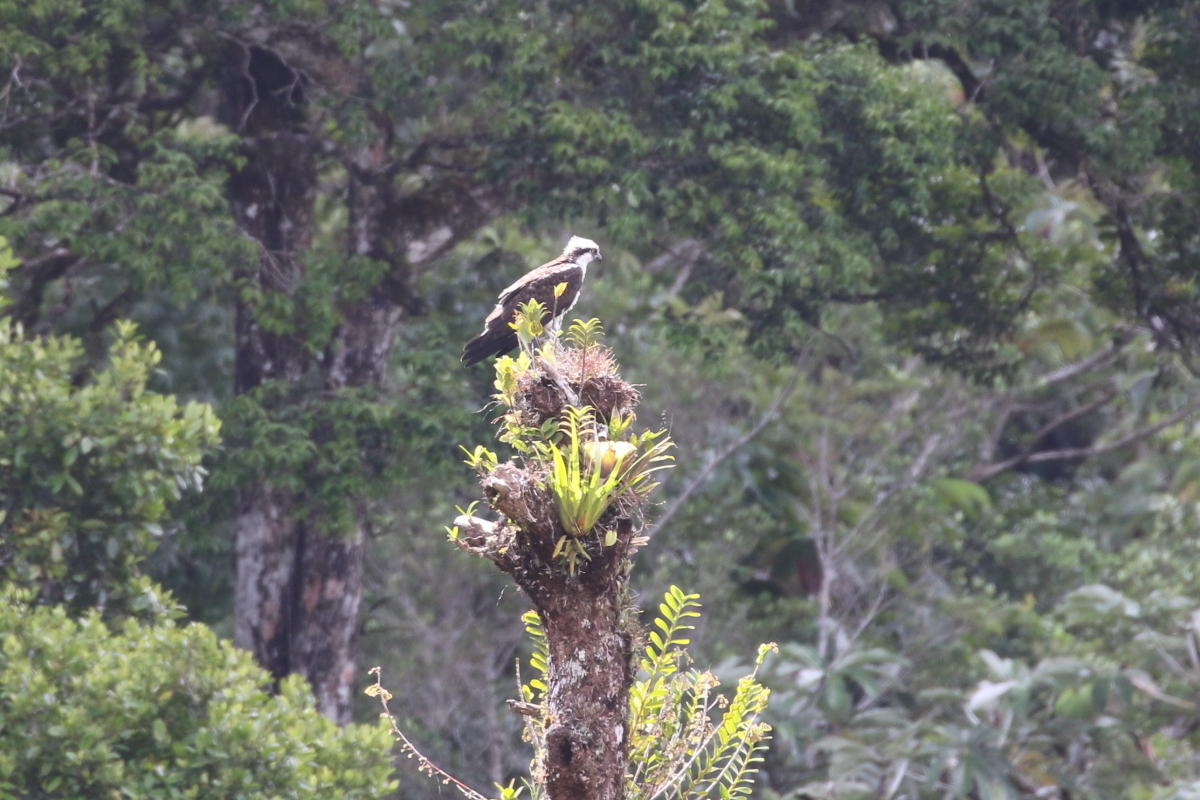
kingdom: Animalia
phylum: Chordata
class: Aves
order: Accipitriformes
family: Pandionidae
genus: Pandion
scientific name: Pandion haliaetus
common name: Osprey
